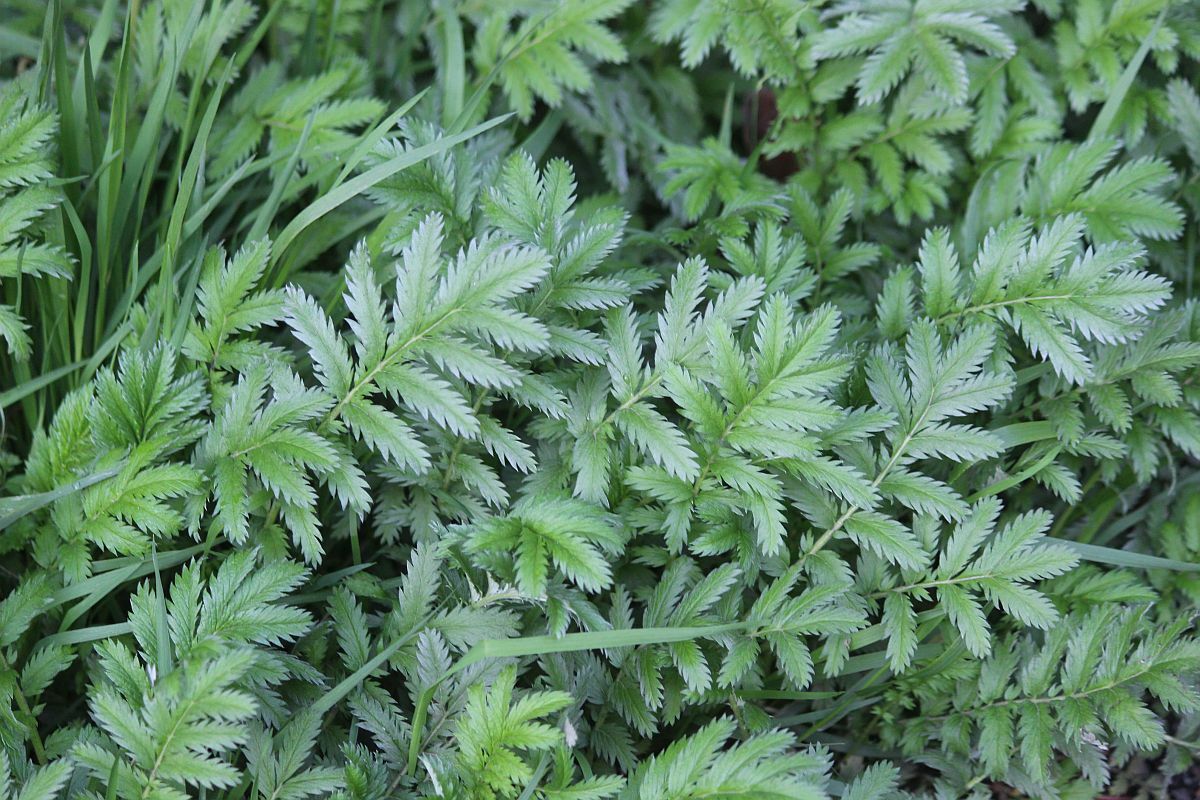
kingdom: Plantae
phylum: Tracheophyta
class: Magnoliopsida
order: Rosales
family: Rosaceae
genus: Argentina
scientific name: Argentina anserina
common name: Common silverweed
